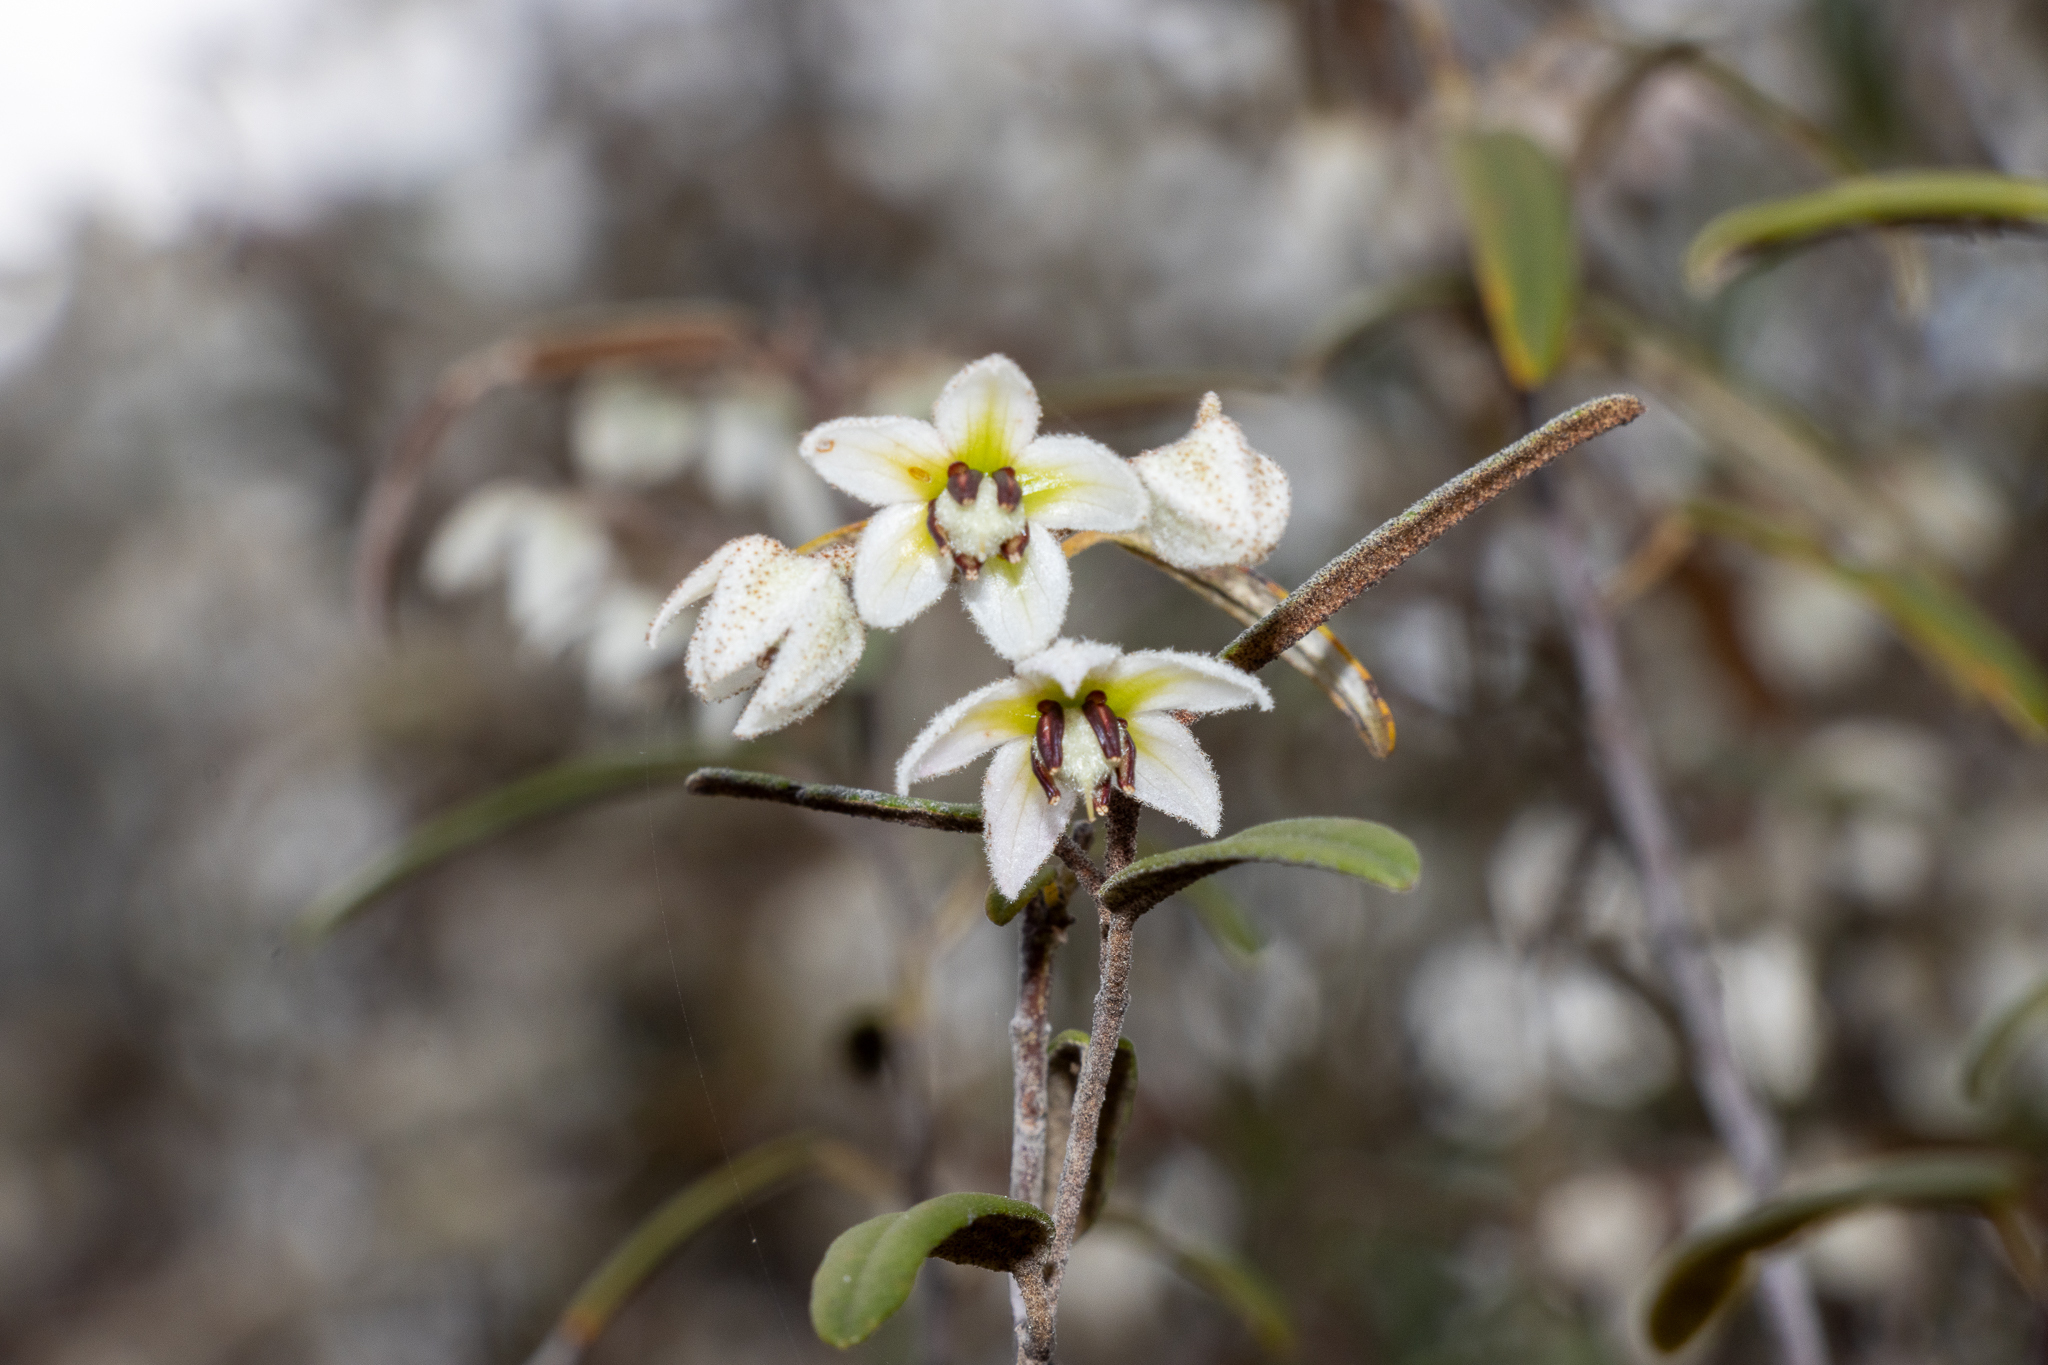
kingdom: Plantae
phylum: Tracheophyta
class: Magnoliopsida
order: Malvales
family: Malvaceae
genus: Lasiopetalum
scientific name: Lasiopetalum behrii
